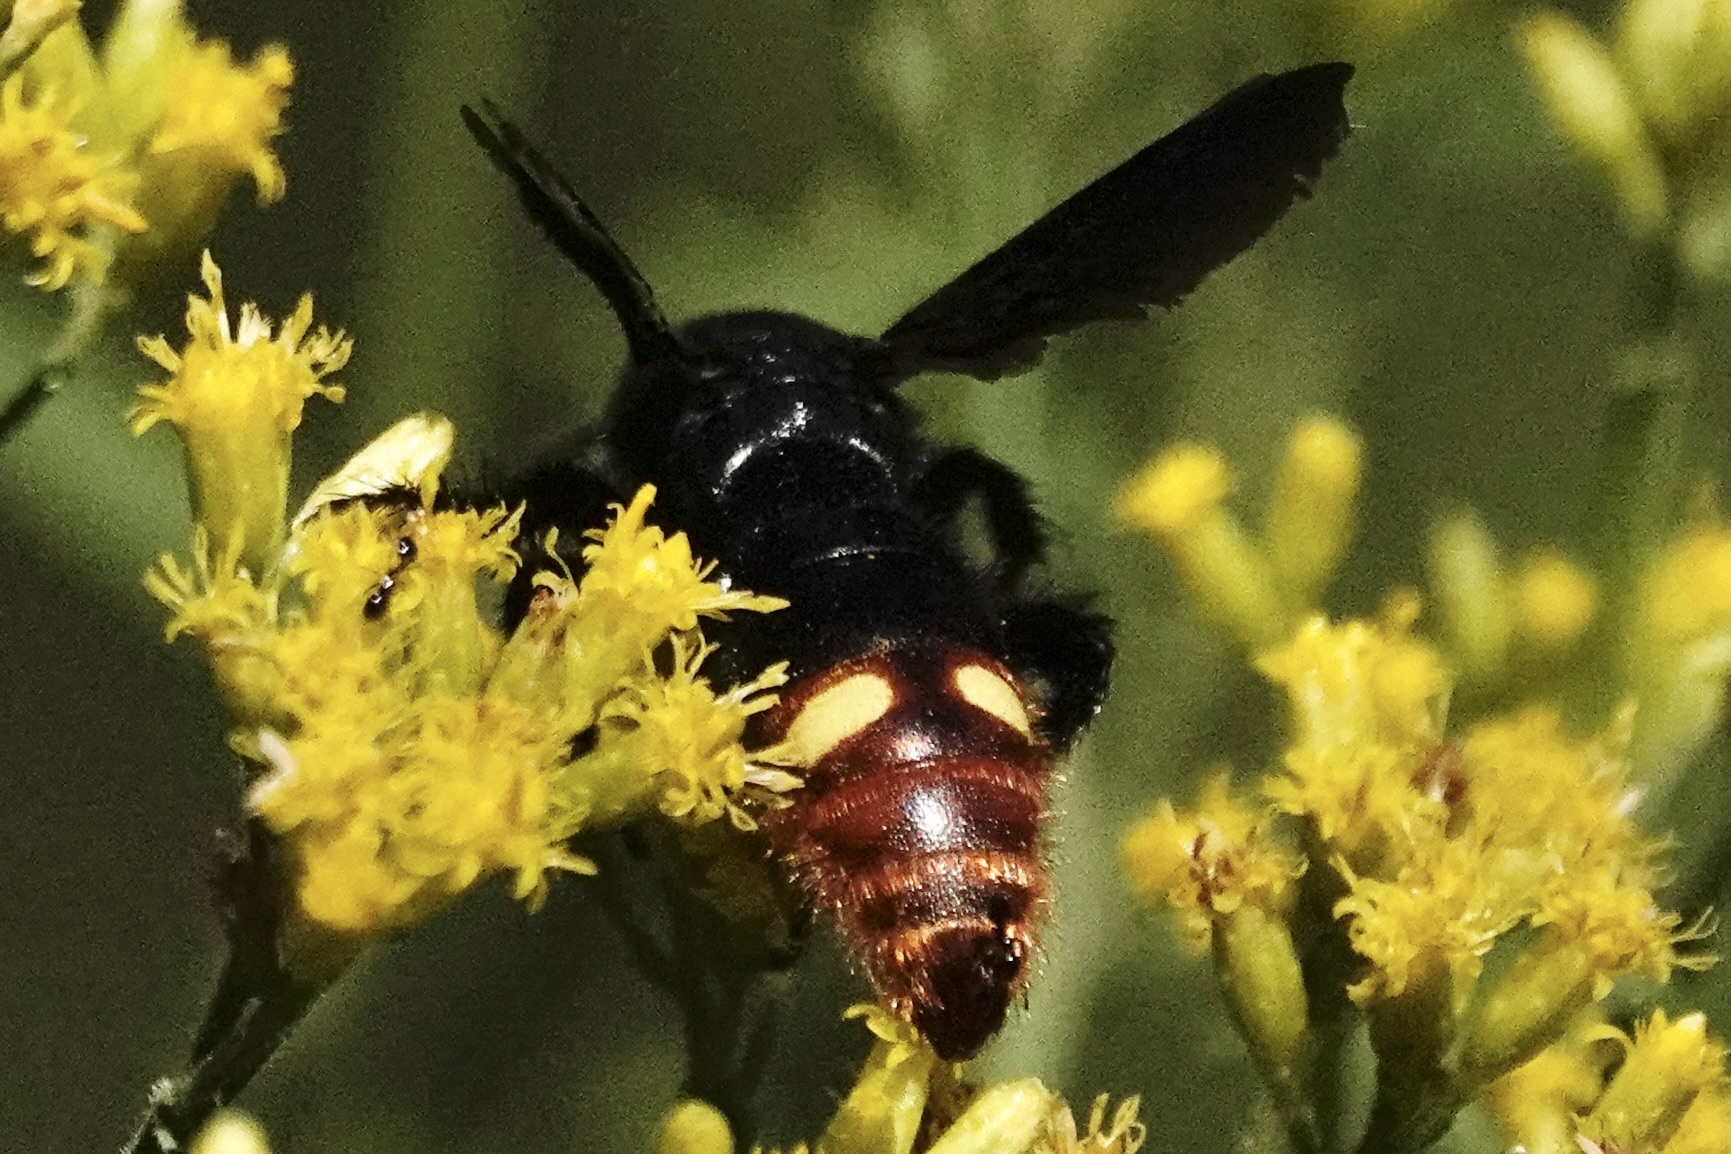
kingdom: Animalia
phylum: Arthropoda
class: Insecta
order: Hymenoptera
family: Scoliidae
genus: Scolia
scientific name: Scolia dubia
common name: Blue-winged scoliid wasp
